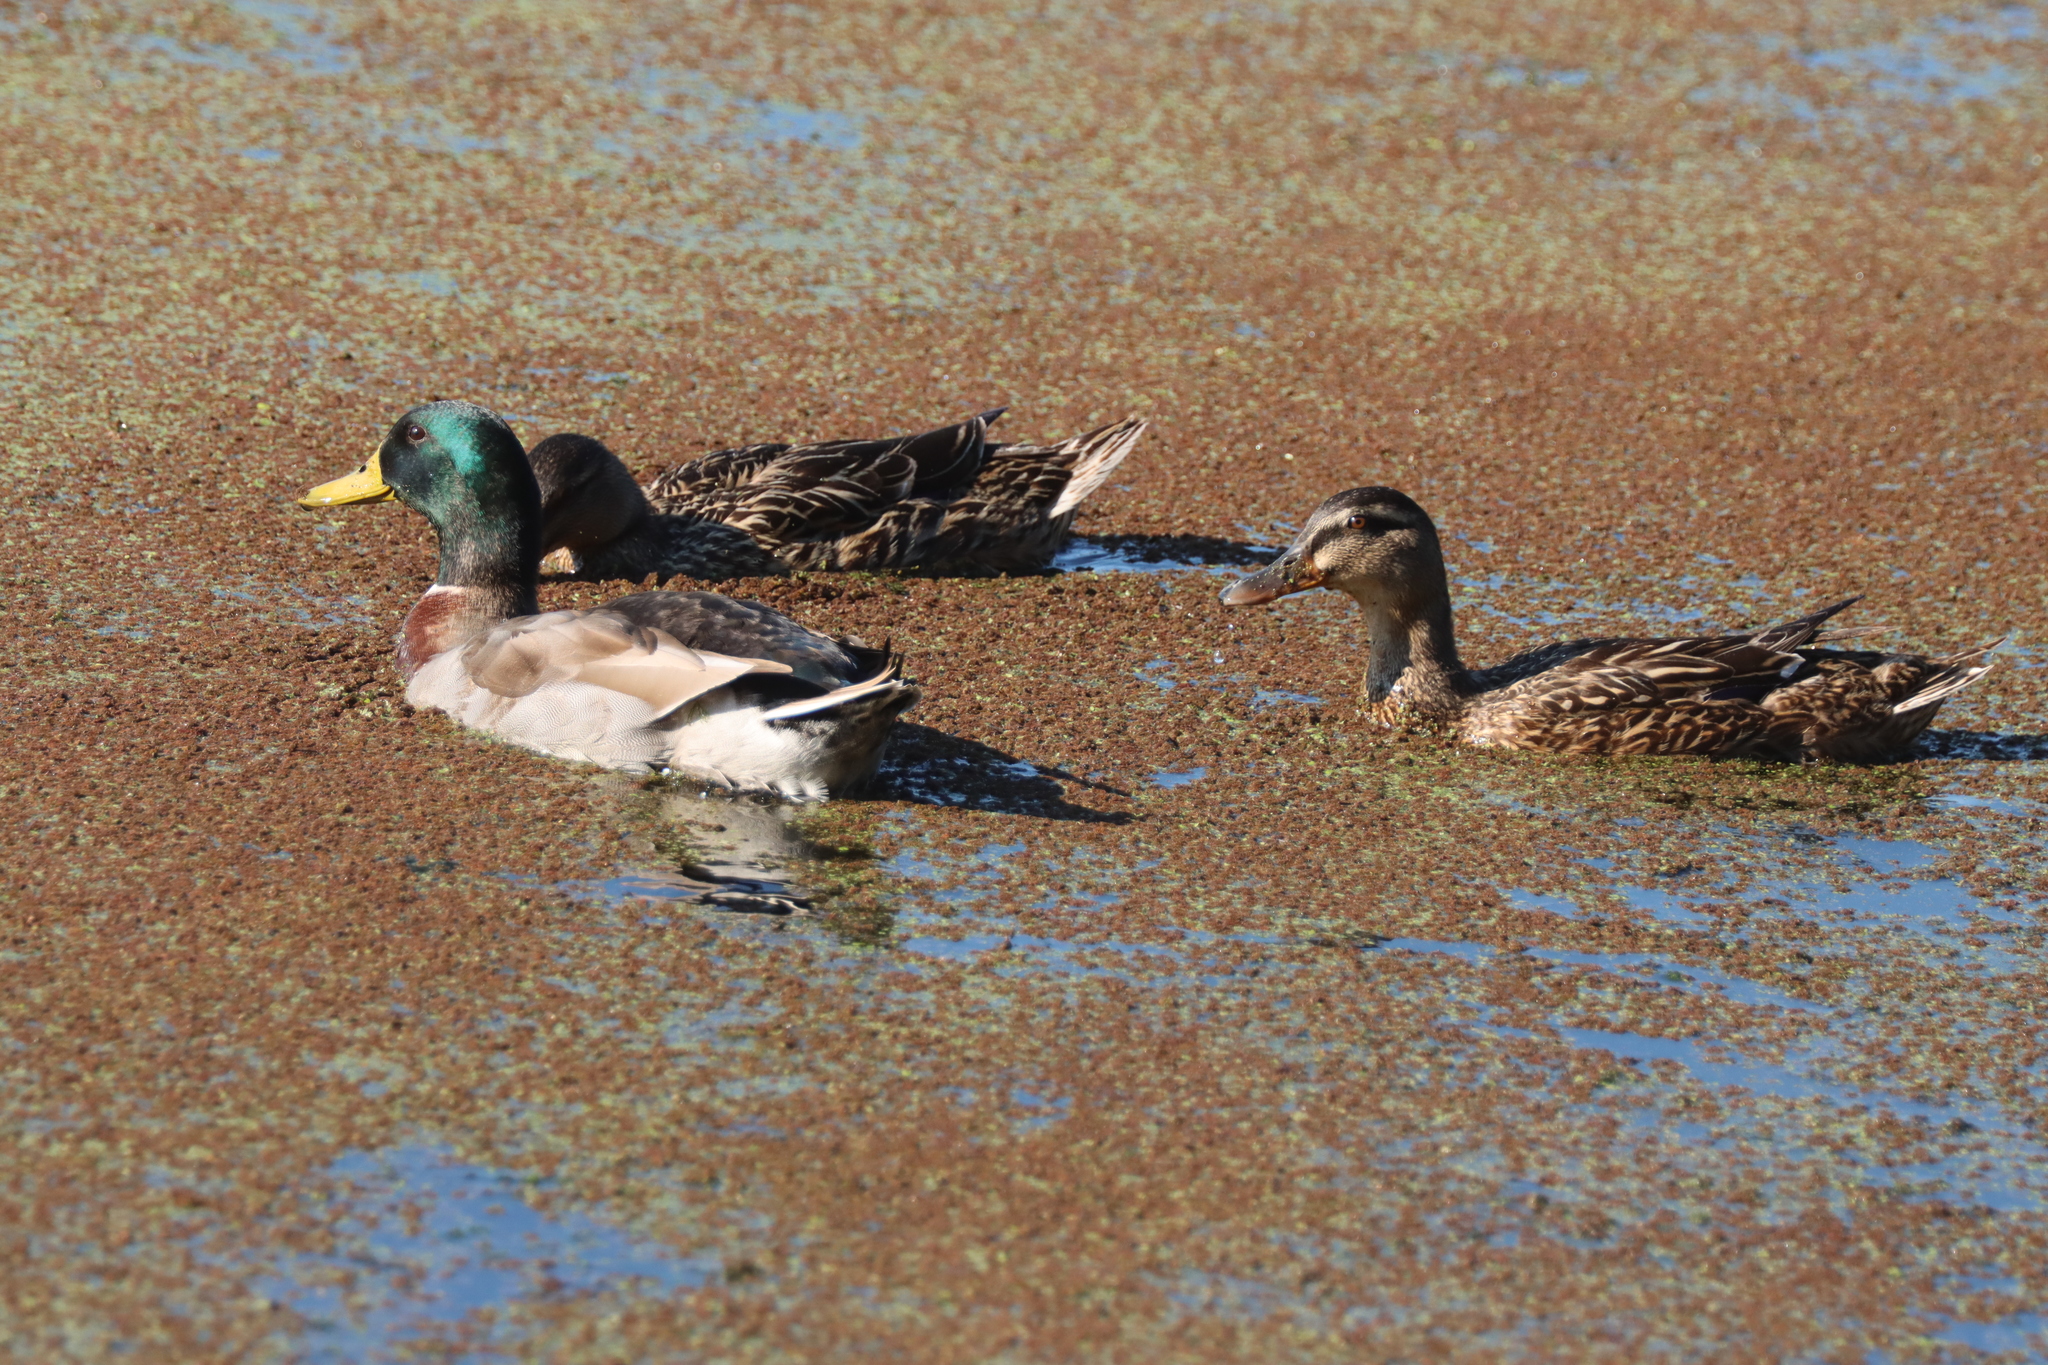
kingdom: Animalia
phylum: Chordata
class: Aves
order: Anseriformes
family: Anatidae
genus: Anas
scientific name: Anas platyrhynchos
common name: Mallard
